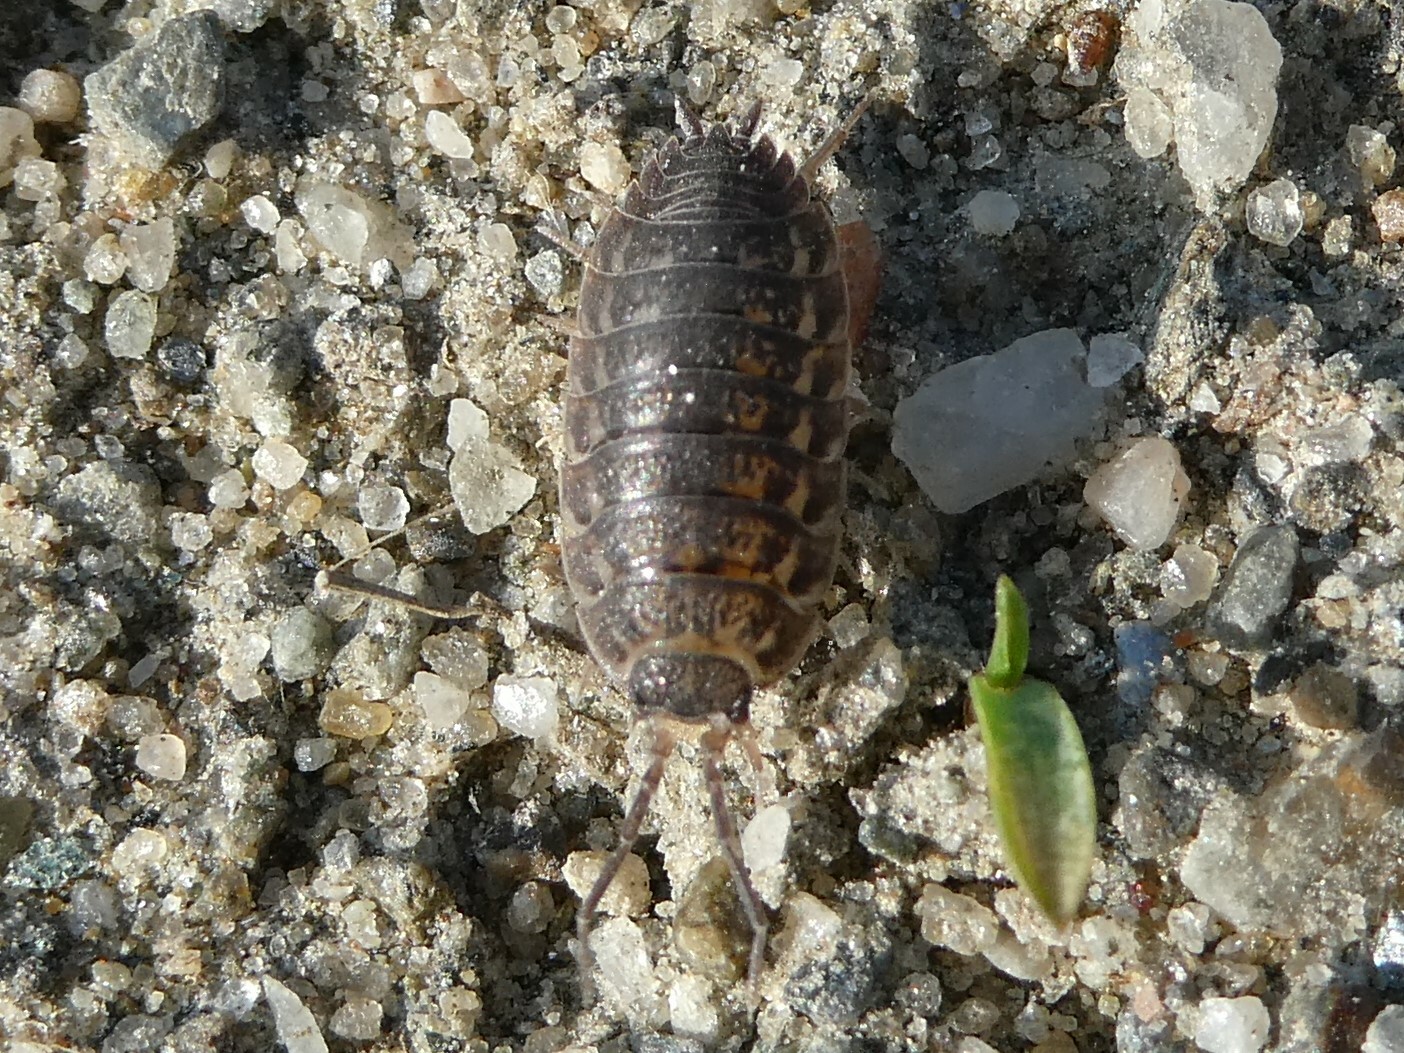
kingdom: Animalia
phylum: Arthropoda
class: Malacostraca
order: Isopoda
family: Trachelipodidae
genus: Trachelipus
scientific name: Trachelipus rathkii
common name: Isopod
